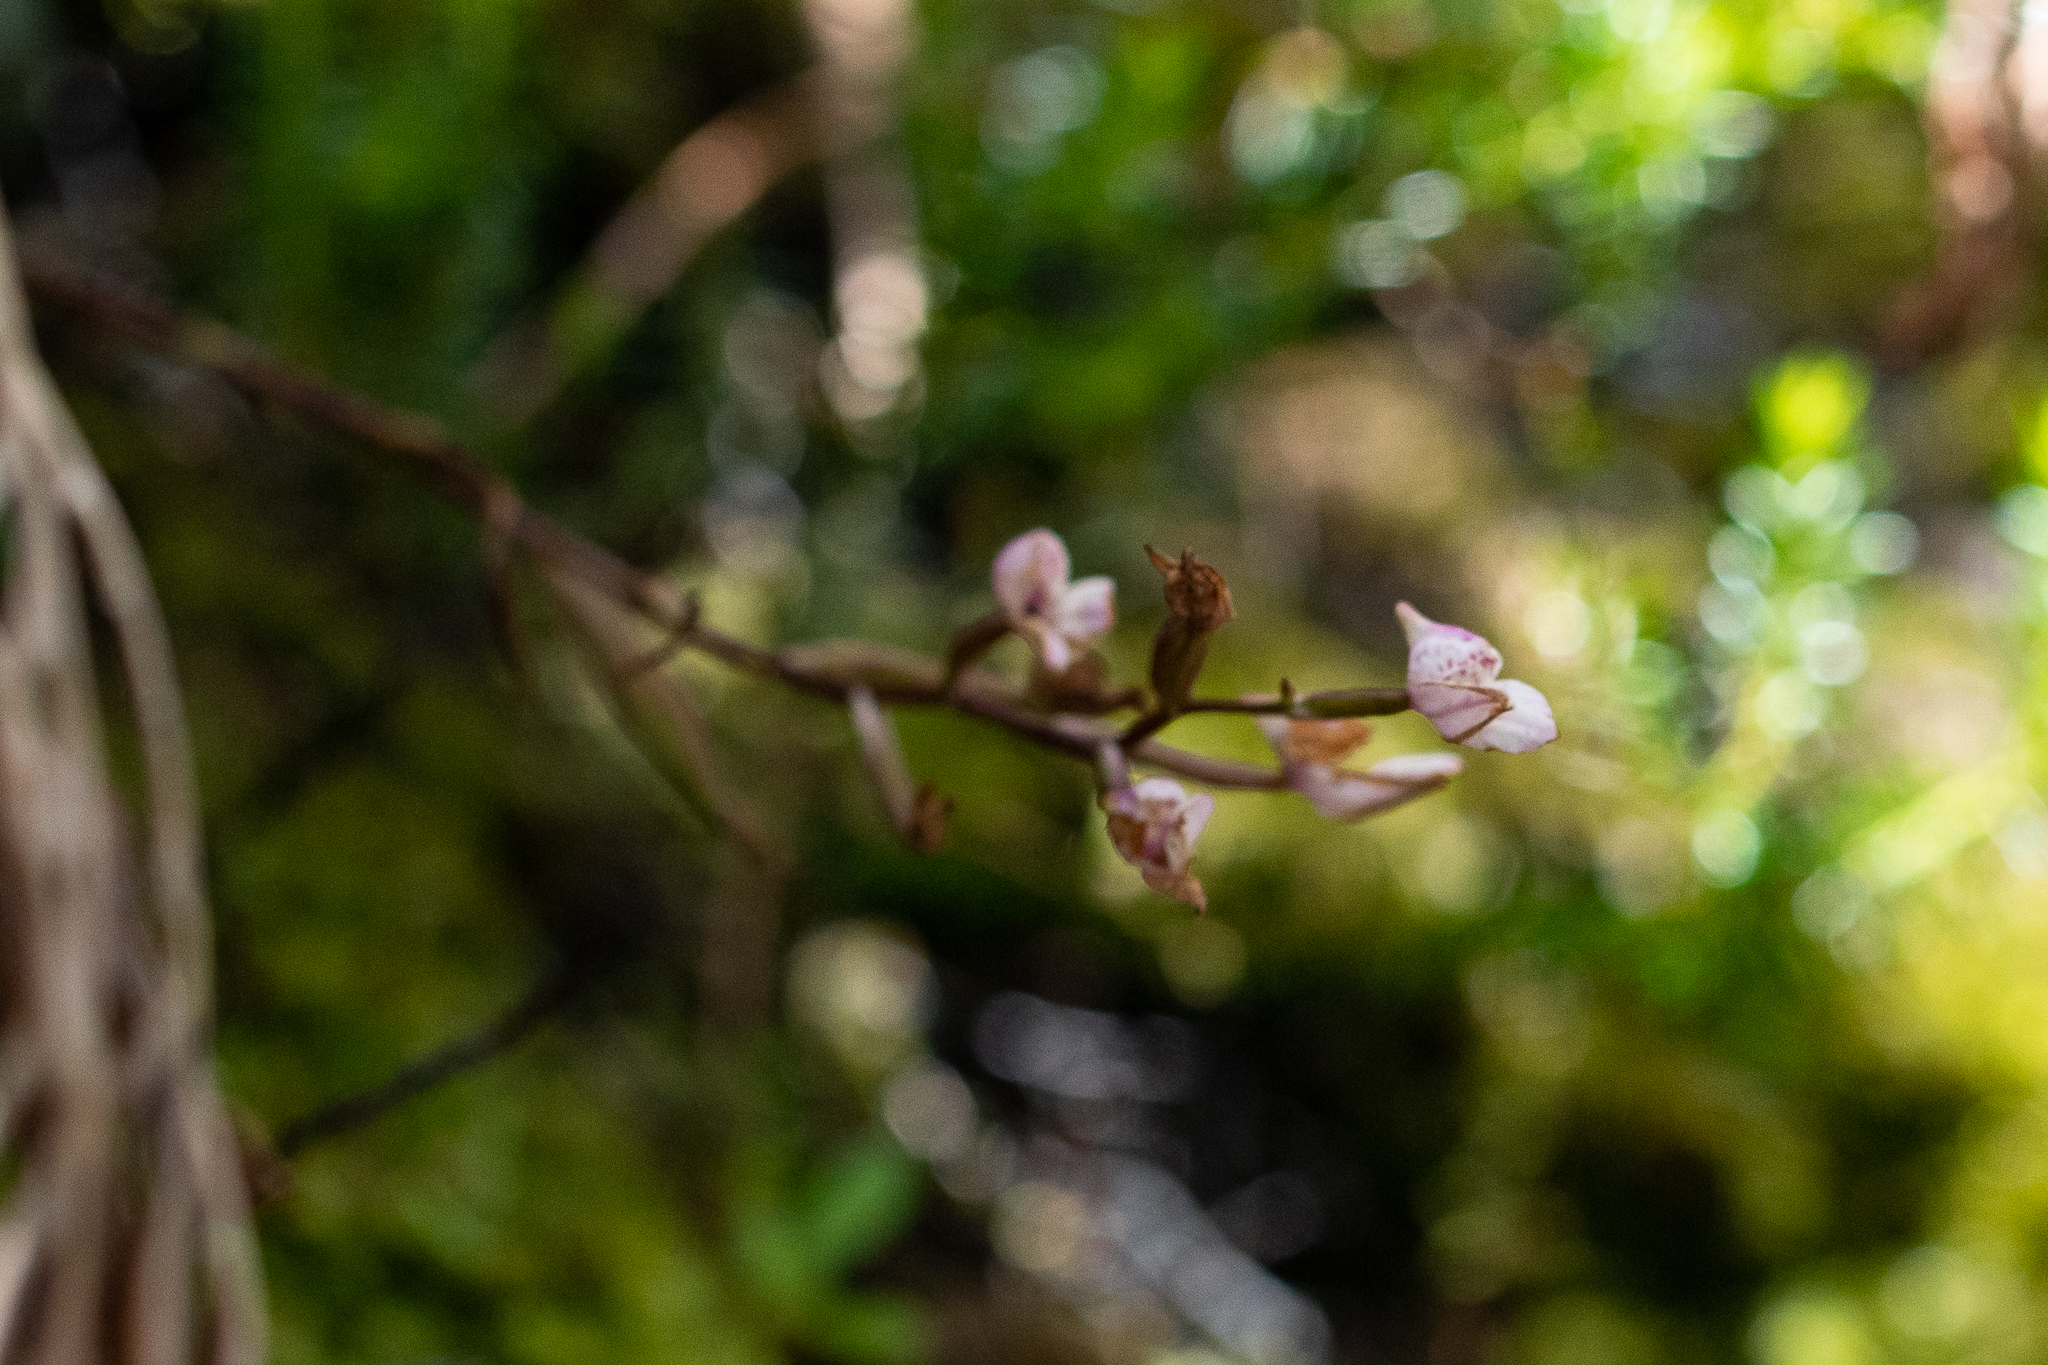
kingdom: Plantae
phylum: Tracheophyta
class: Liliopsida
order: Asparagales
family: Orchidaceae
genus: Disa
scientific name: Disa tripetaloides
